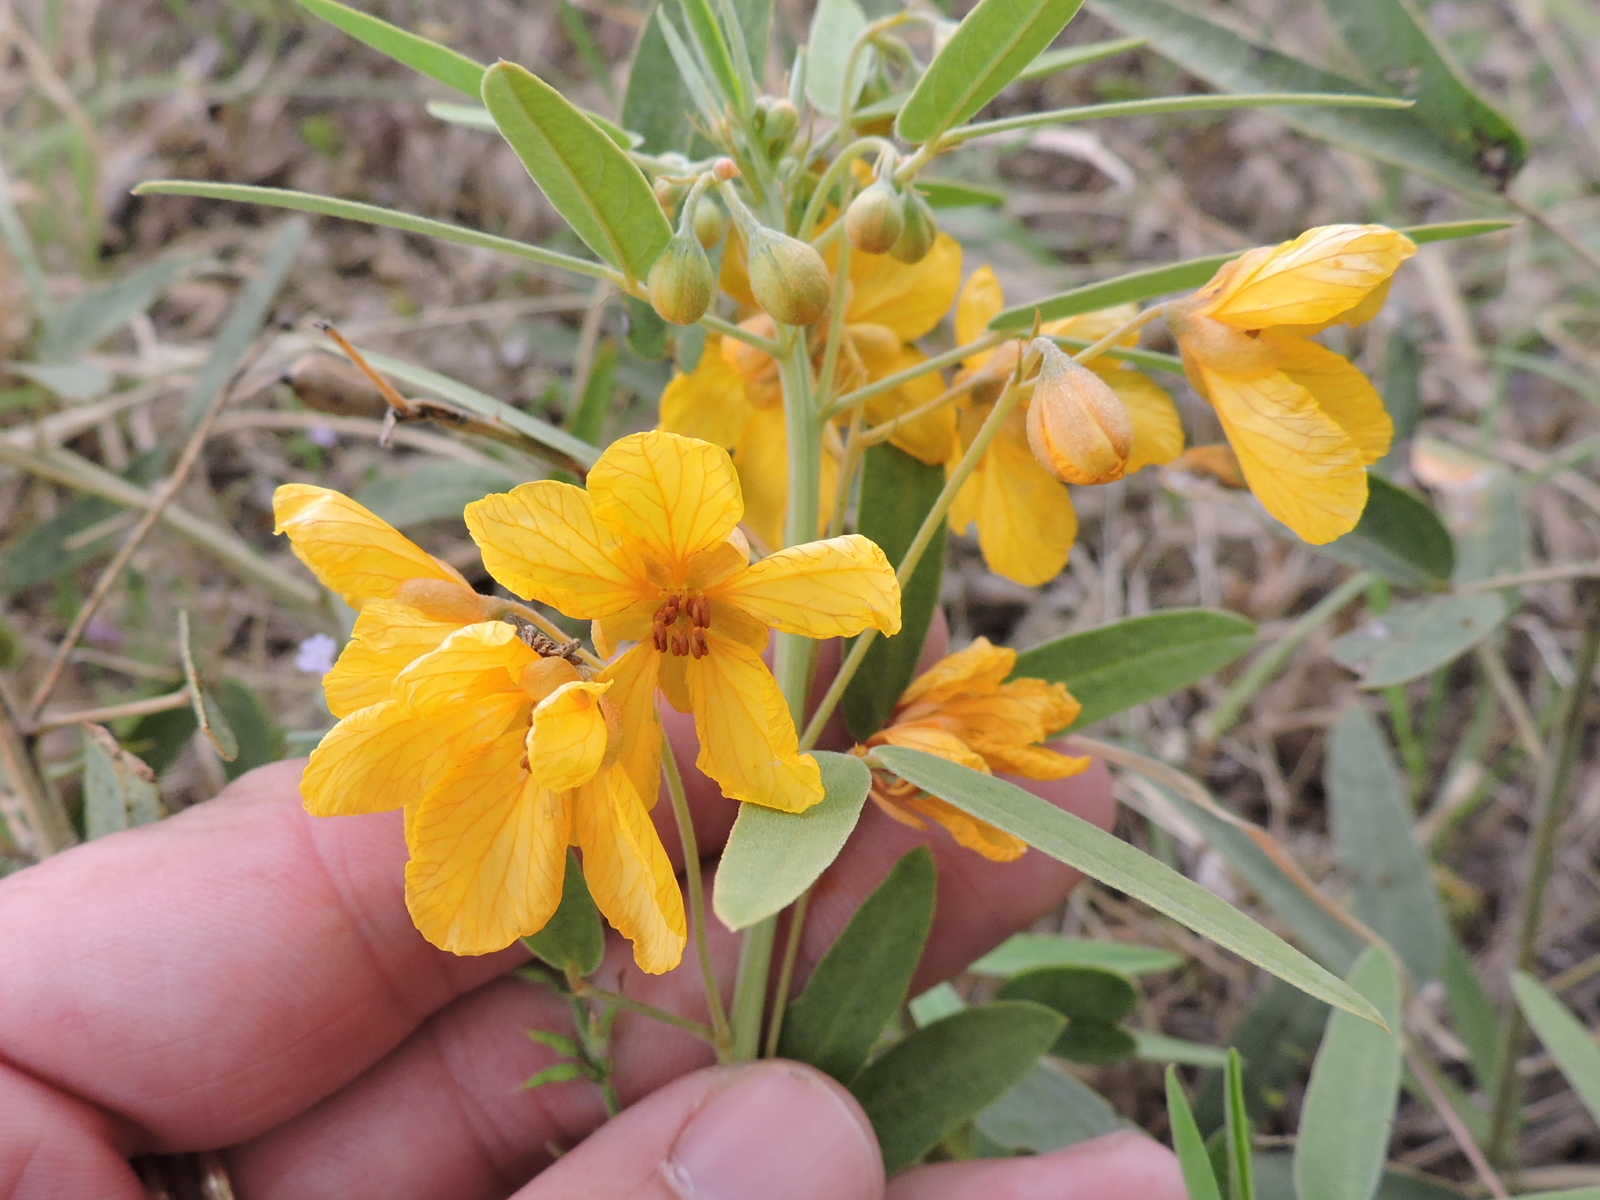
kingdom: Plantae
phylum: Tracheophyta
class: Magnoliopsida
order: Fabales
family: Fabaceae
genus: Senna
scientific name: Senna roemeriana
